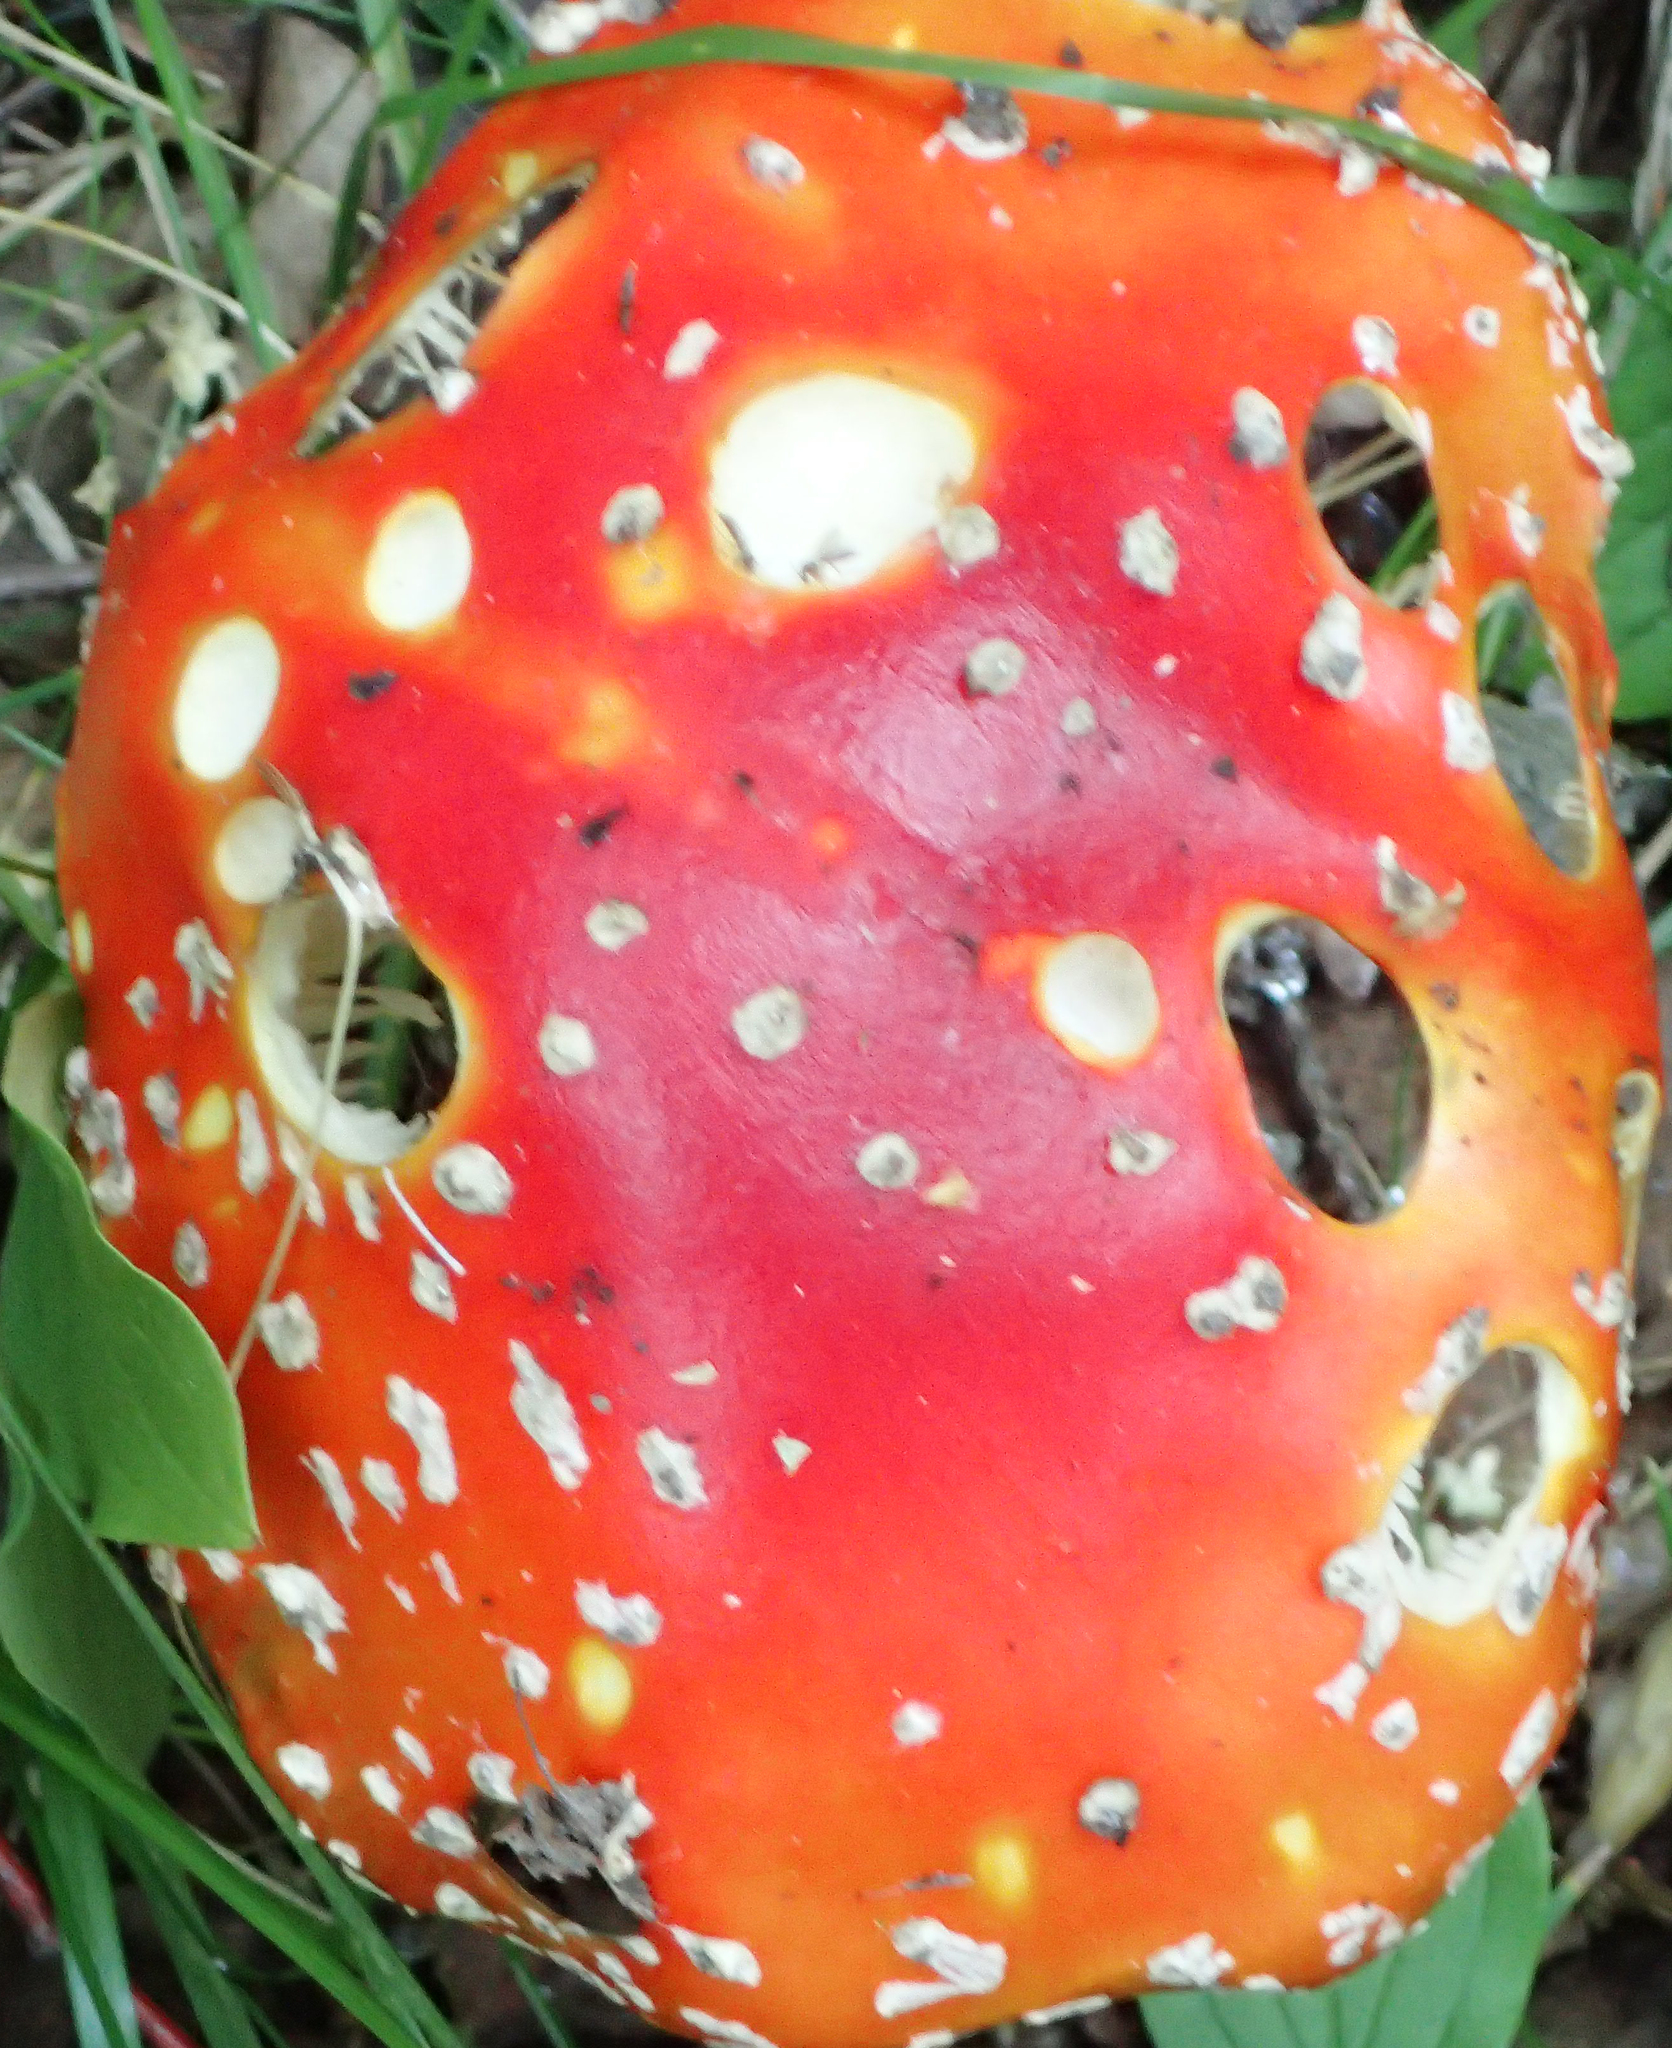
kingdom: Fungi
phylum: Basidiomycota
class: Agaricomycetes
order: Agaricales
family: Amanitaceae
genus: Amanita
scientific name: Amanita muscaria
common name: Fly agaric
